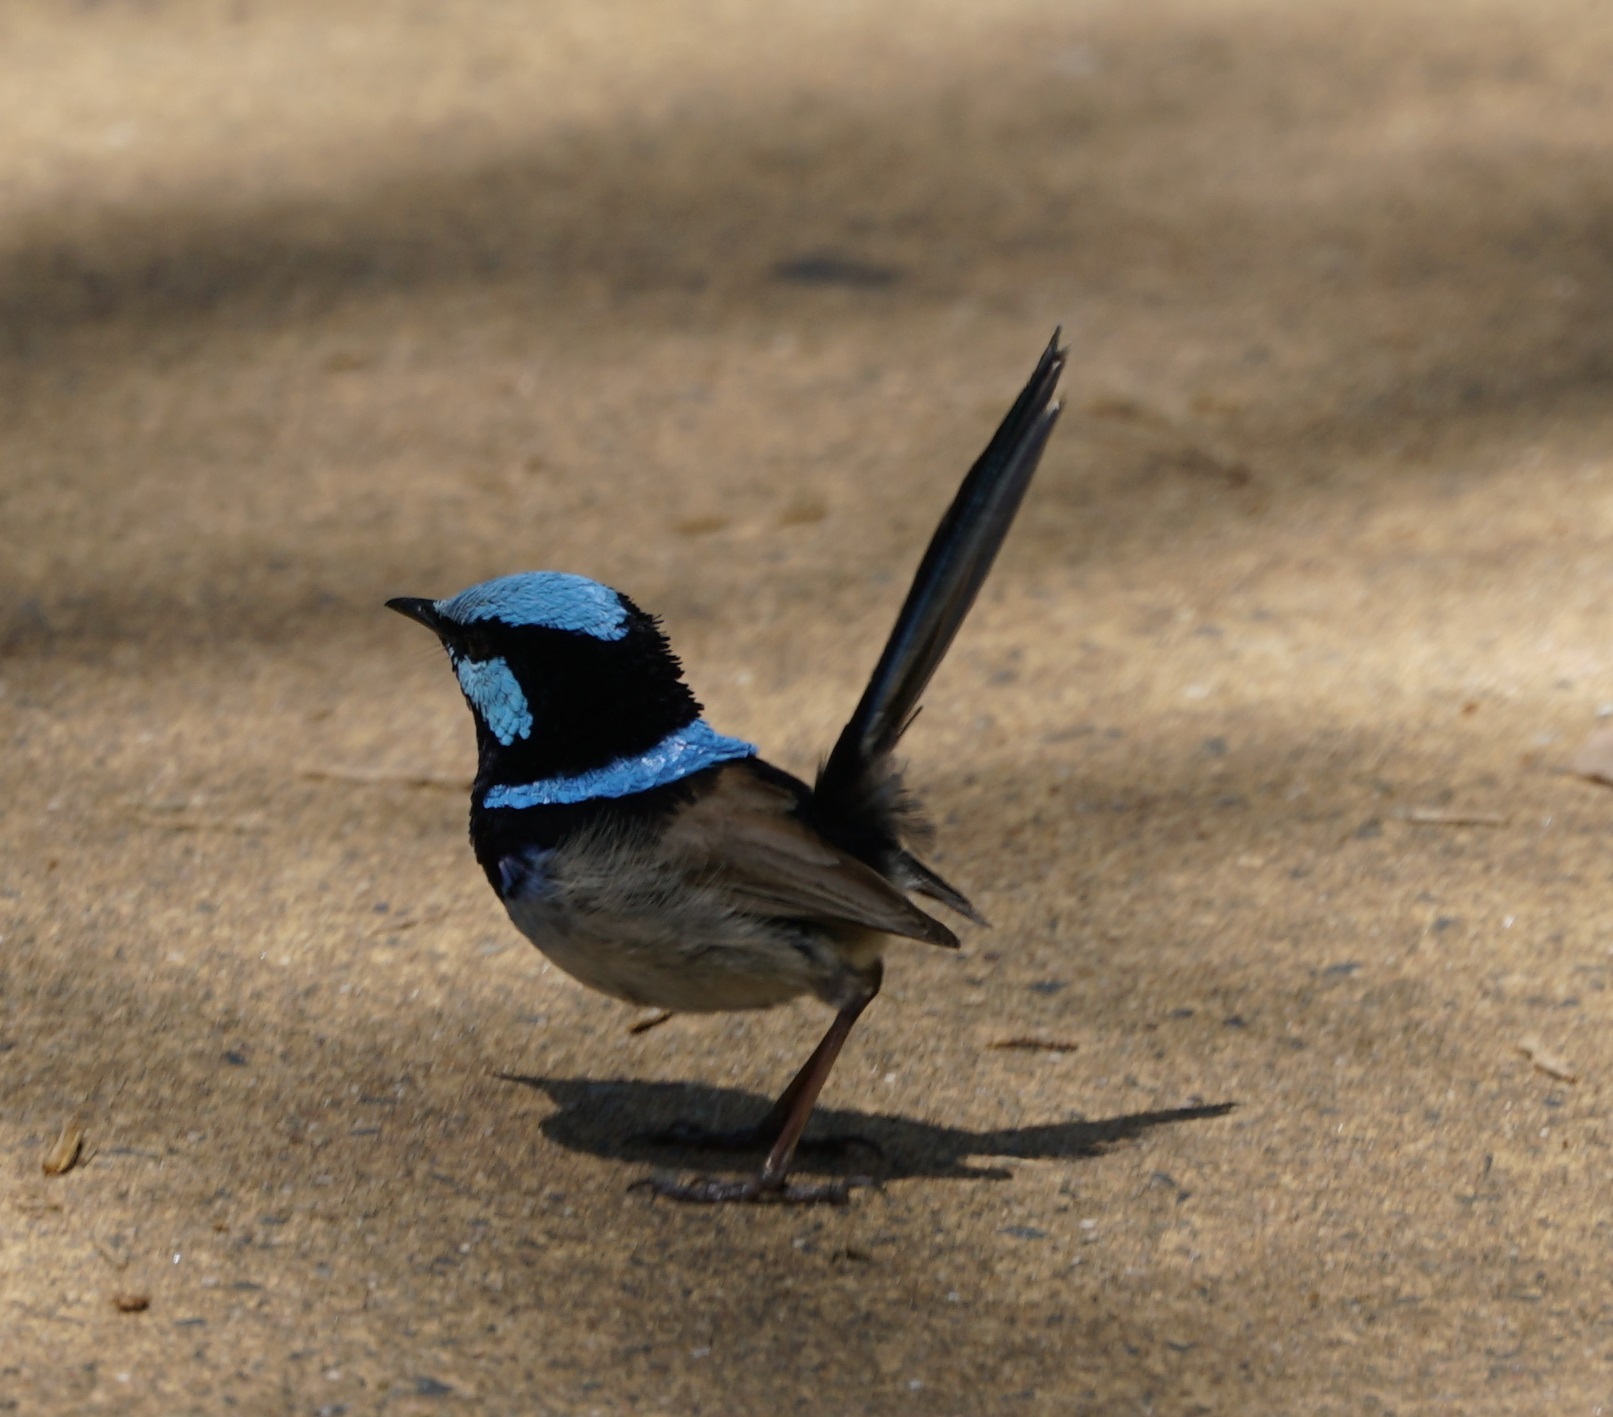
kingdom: Animalia
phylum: Chordata
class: Aves
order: Passeriformes
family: Maluridae
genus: Malurus
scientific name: Malurus cyaneus
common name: Superb fairywren
